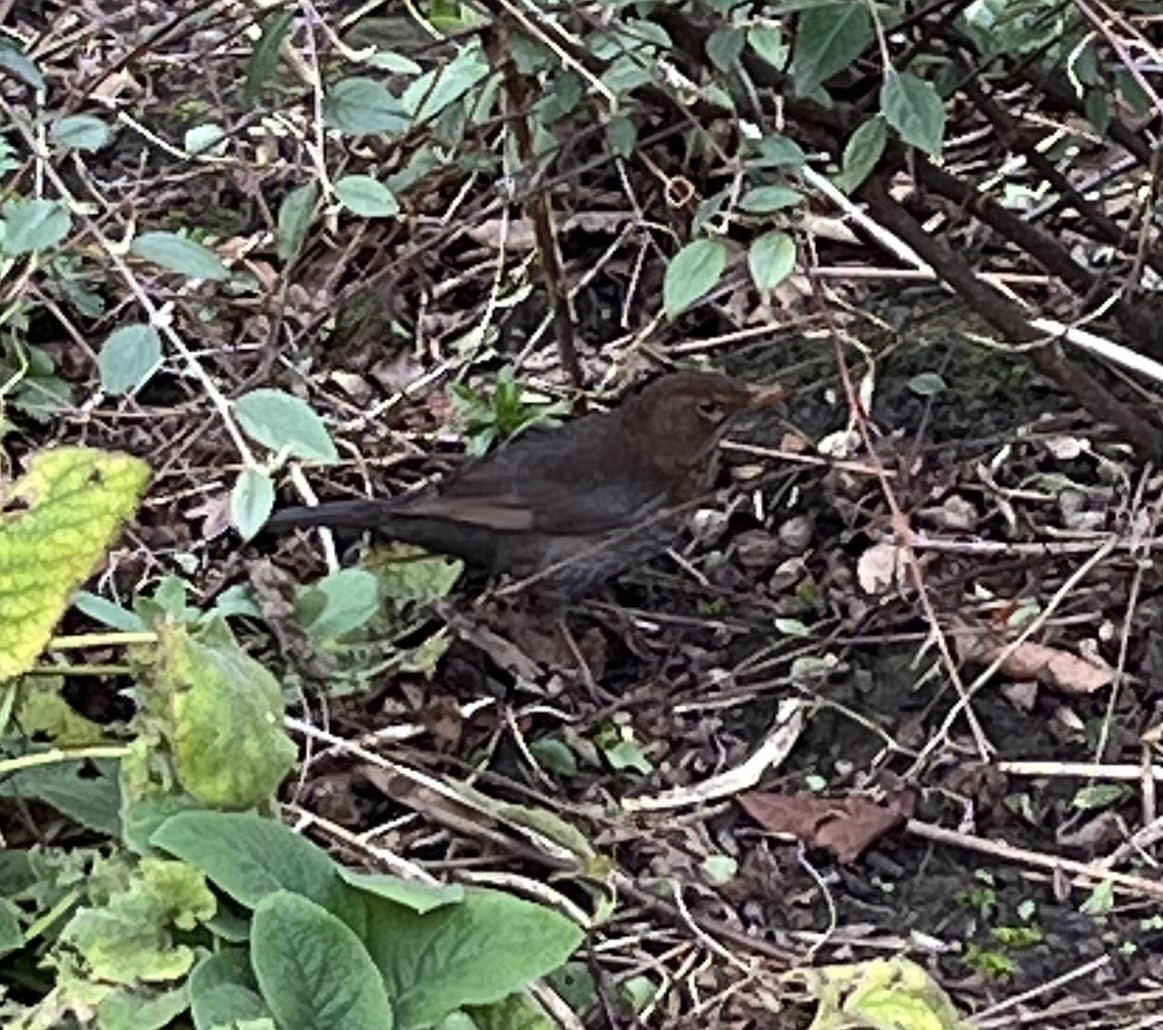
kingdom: Animalia
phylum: Chordata
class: Aves
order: Passeriformes
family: Turdidae
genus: Turdus
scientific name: Turdus merula
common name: Common blackbird
